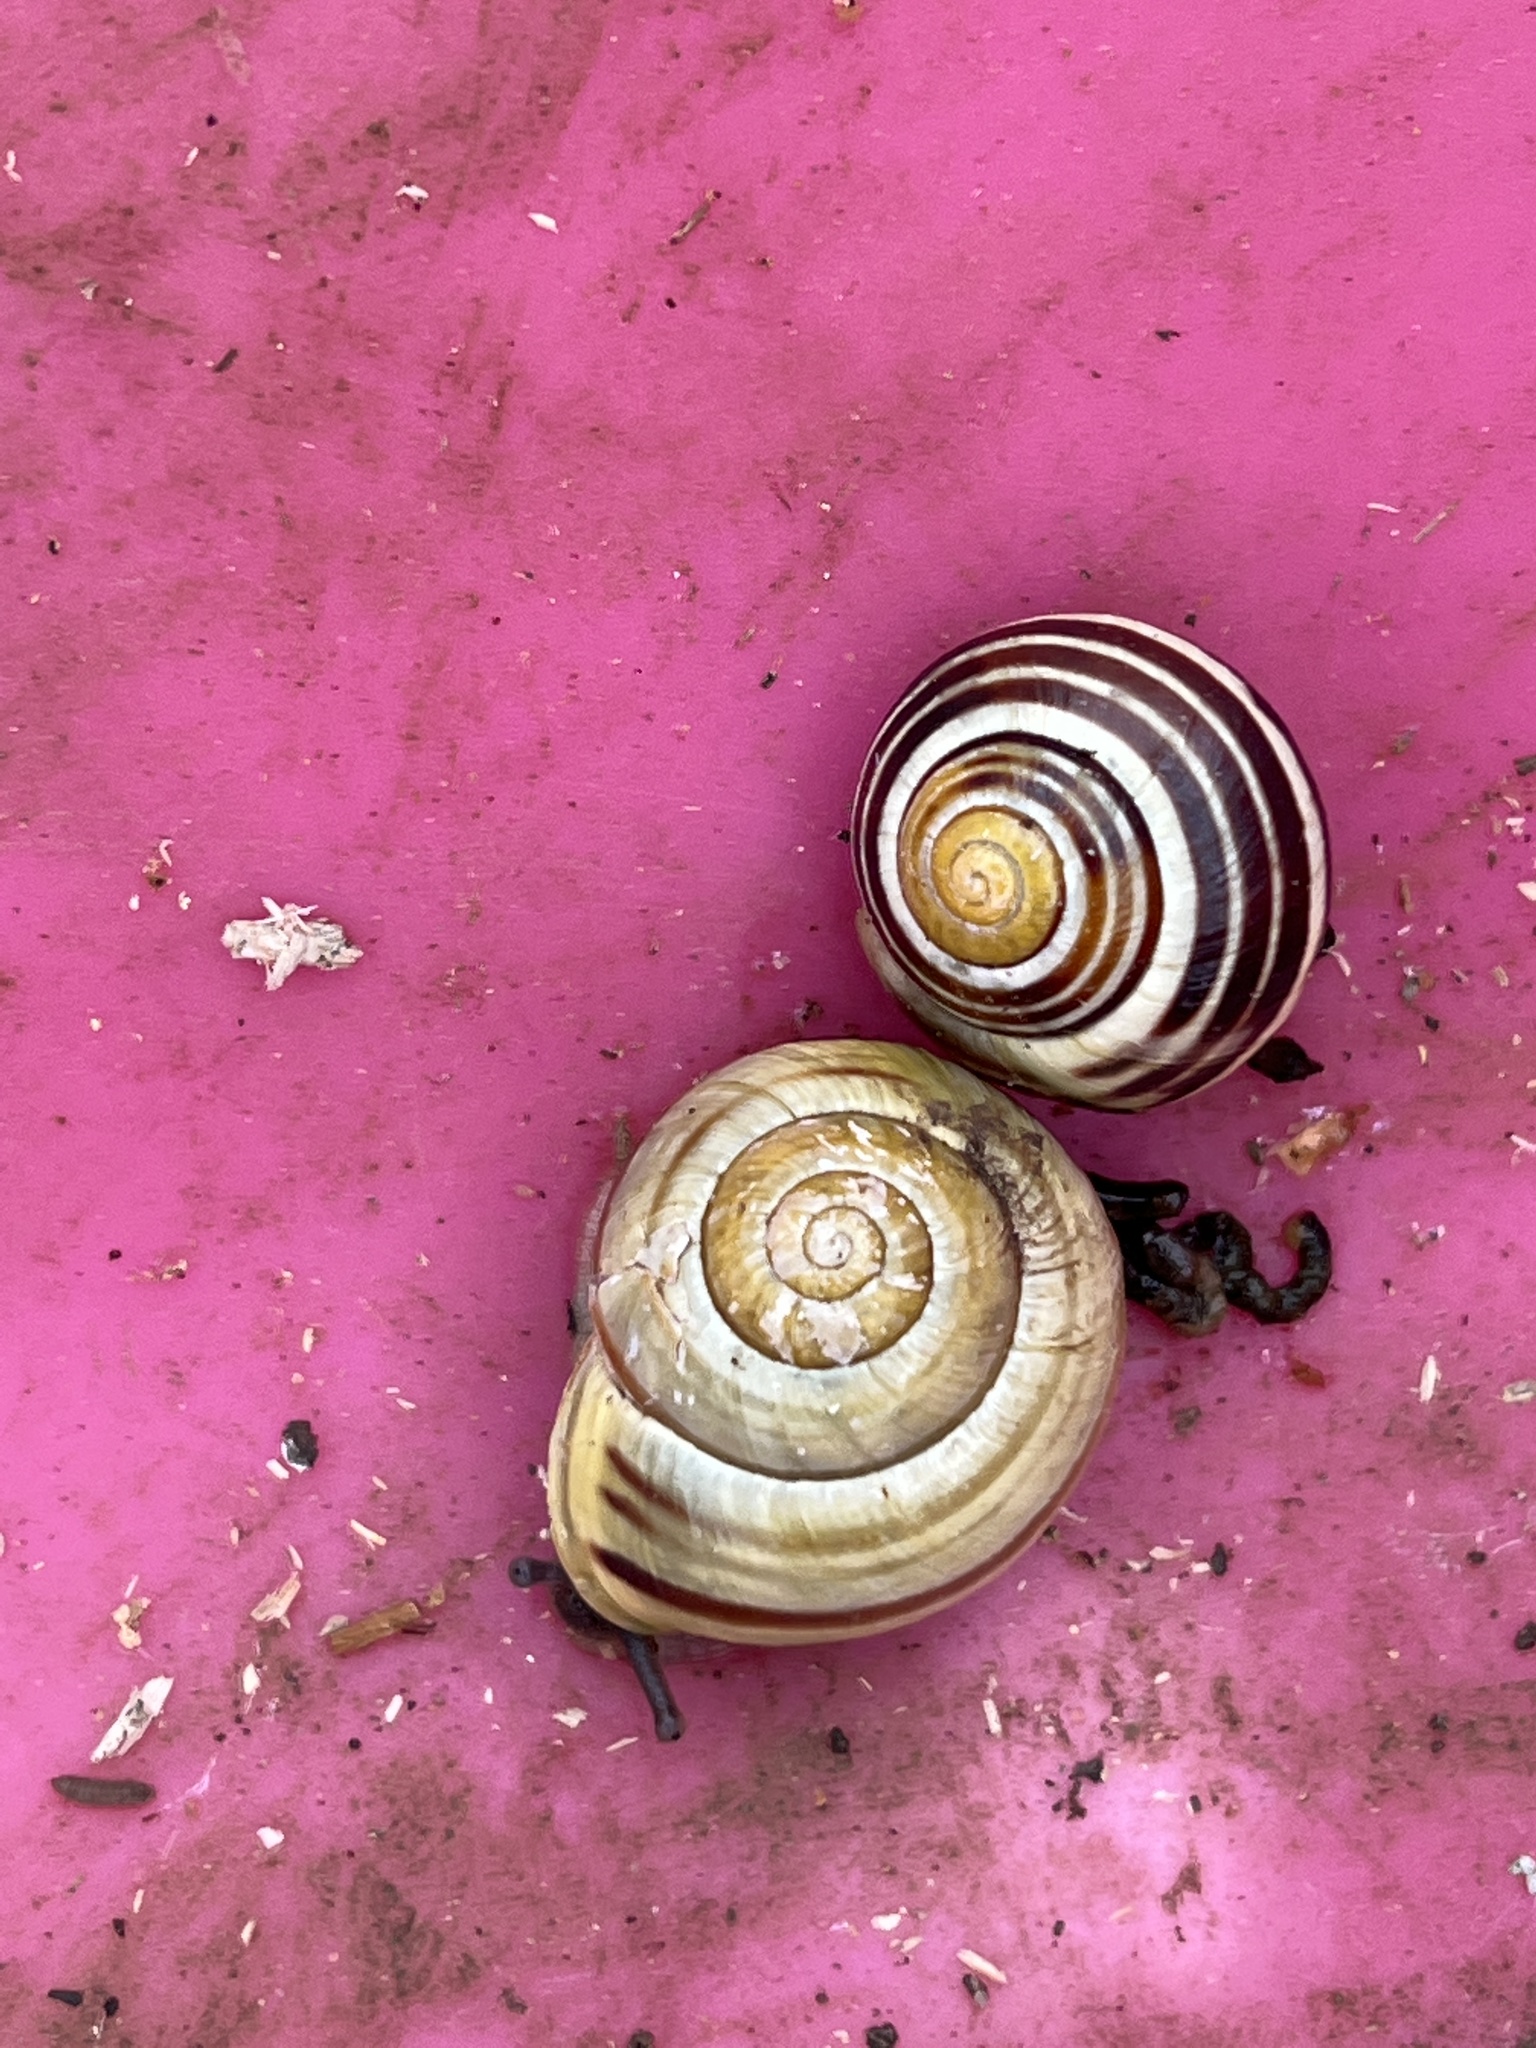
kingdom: Animalia
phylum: Mollusca
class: Gastropoda
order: Stylommatophora
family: Helicidae
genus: Cepaea
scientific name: Cepaea hortensis
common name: White-lip gardensnail
